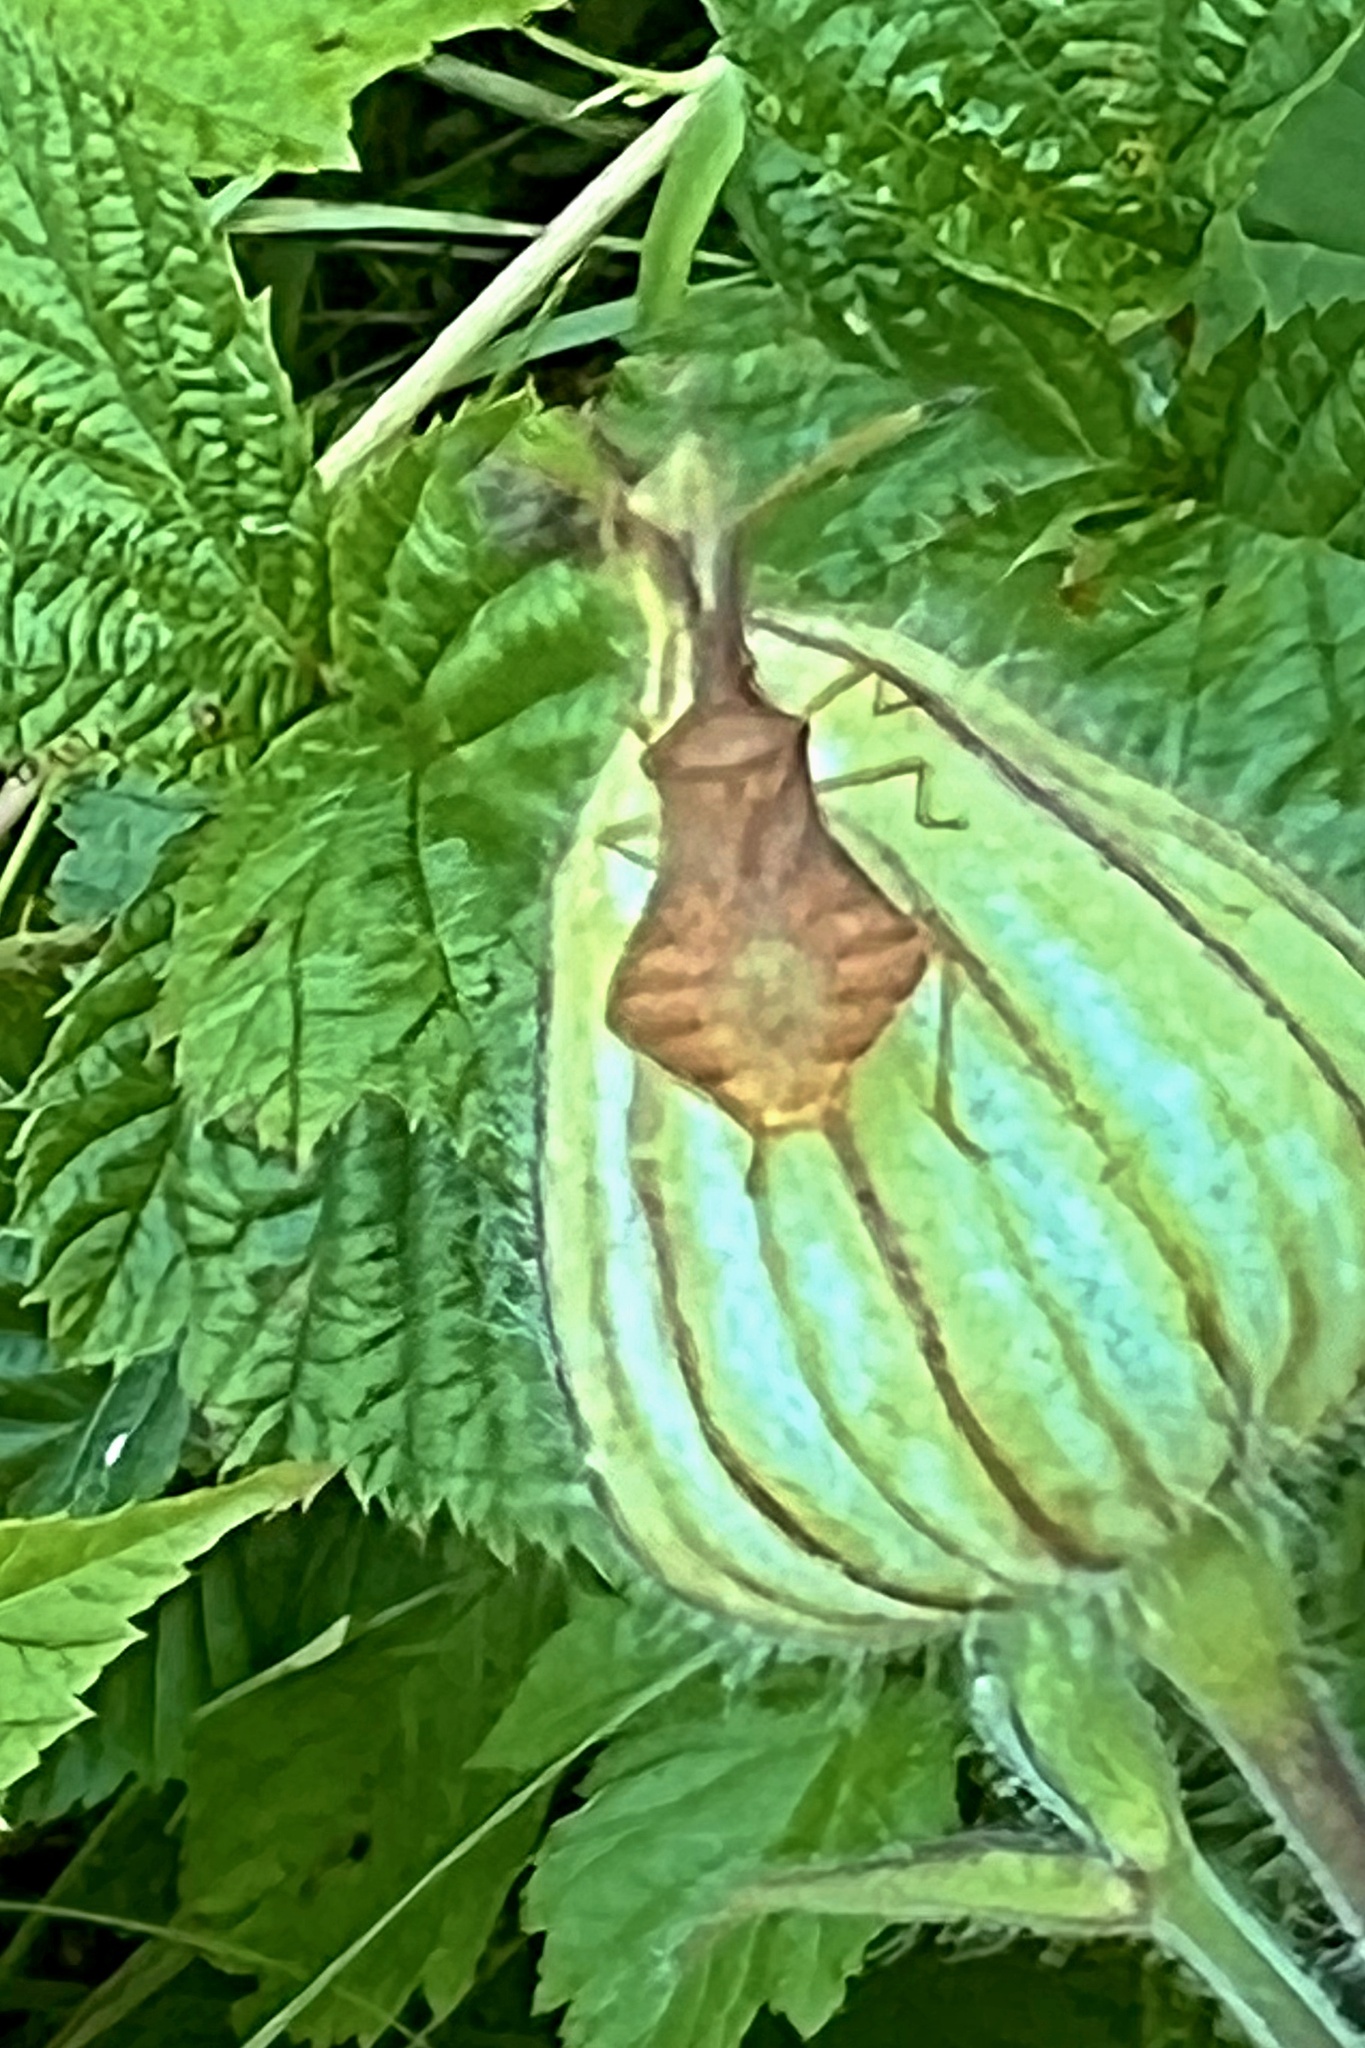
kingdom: Animalia
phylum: Arthropoda
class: Insecta
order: Hemiptera
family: Coreidae
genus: Syromastus
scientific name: Syromastus rhombeus
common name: Rhombic leatherbug
